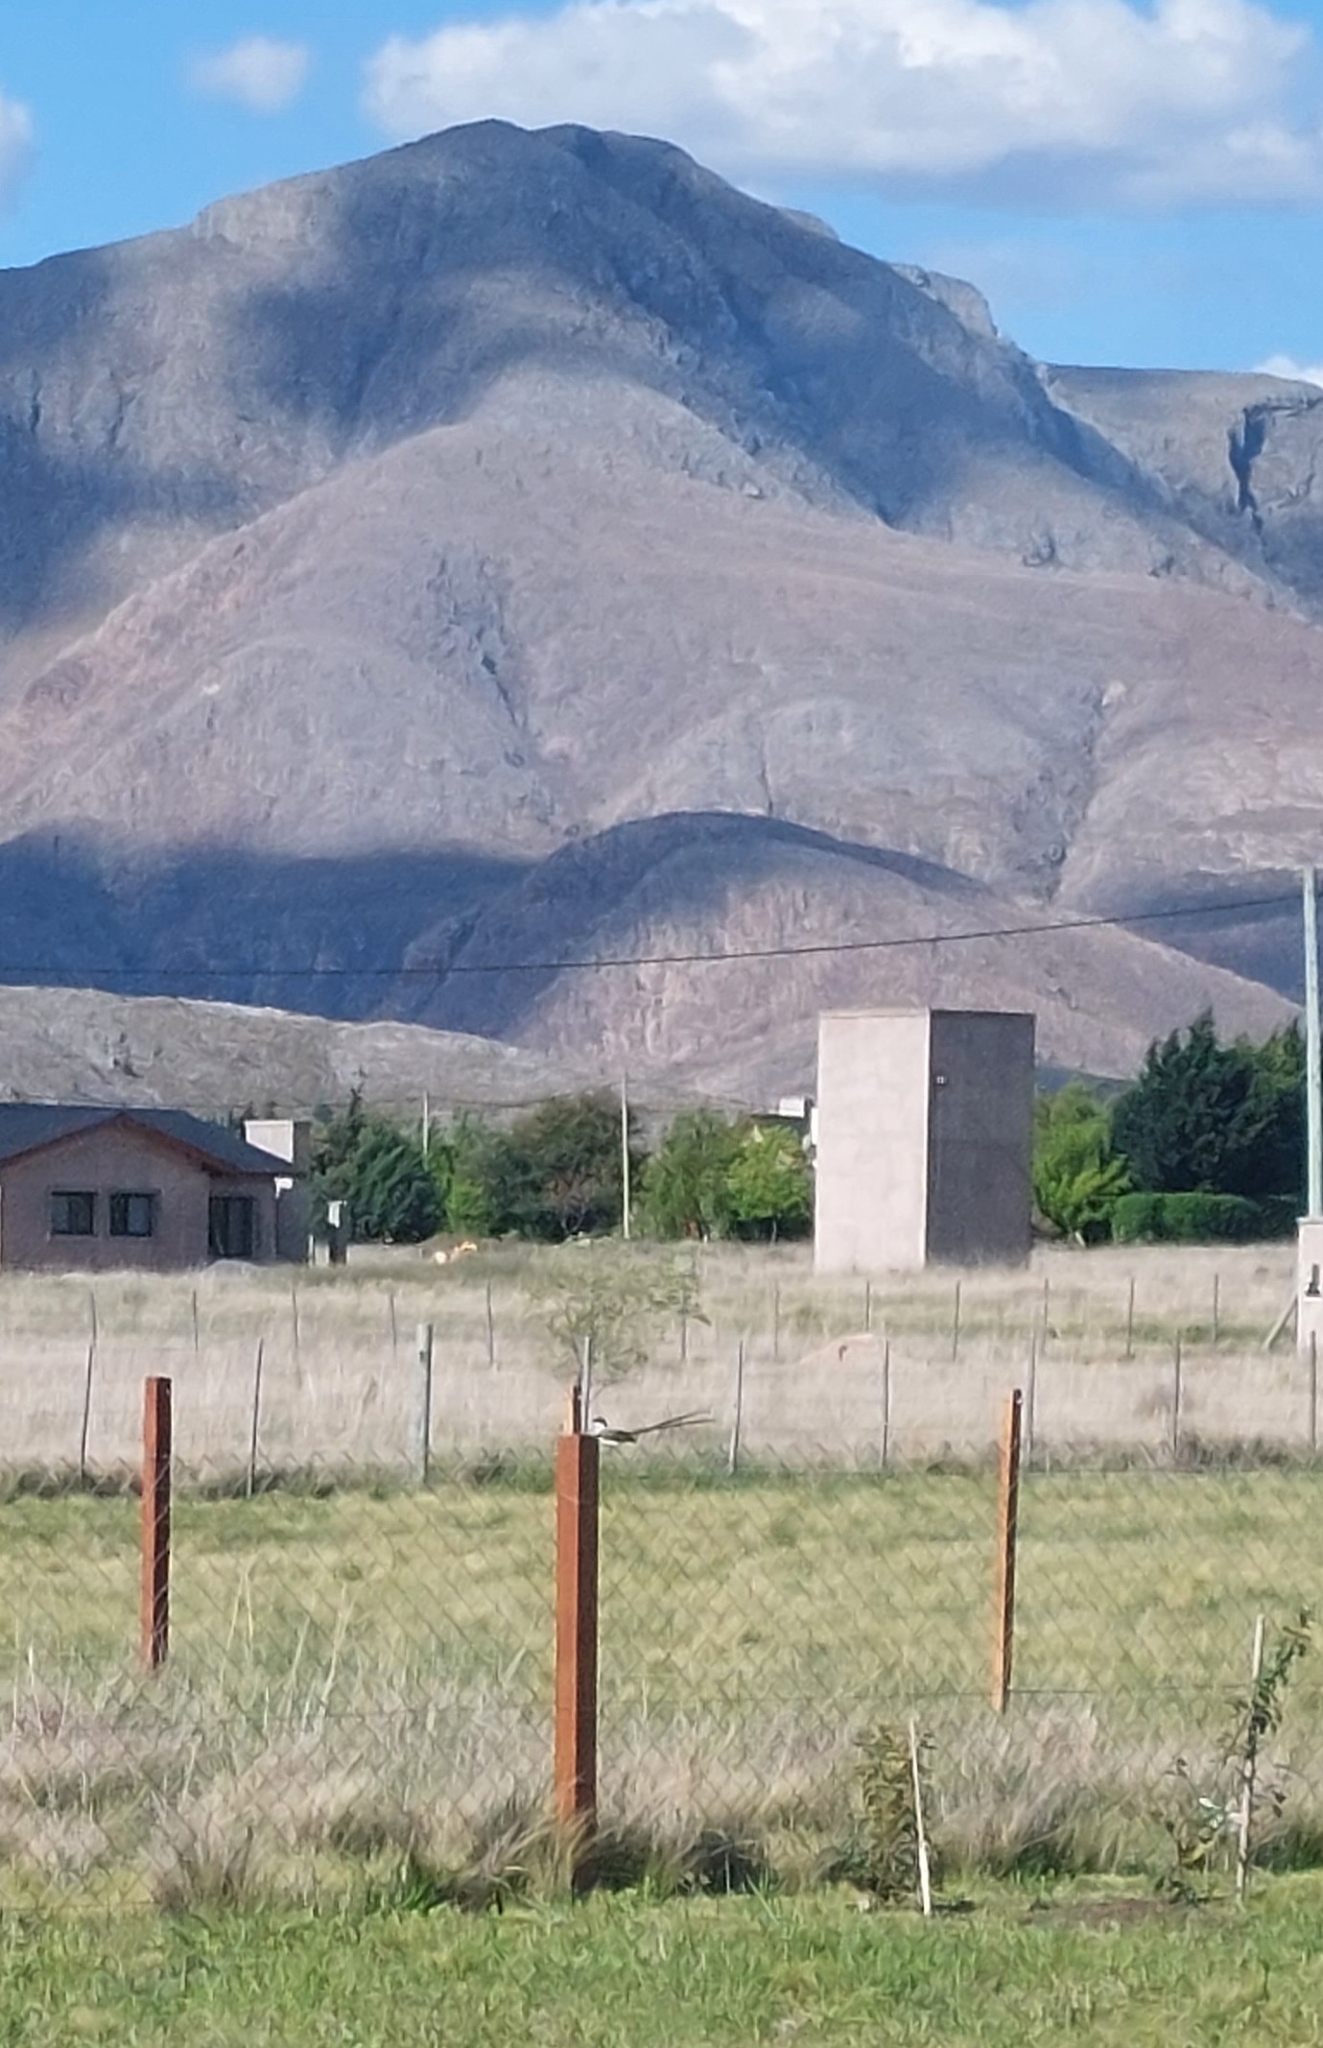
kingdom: Animalia
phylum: Chordata
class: Aves
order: Passeriformes
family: Tyrannidae
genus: Tyrannus
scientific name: Tyrannus savana
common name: Fork-tailed flycatcher
